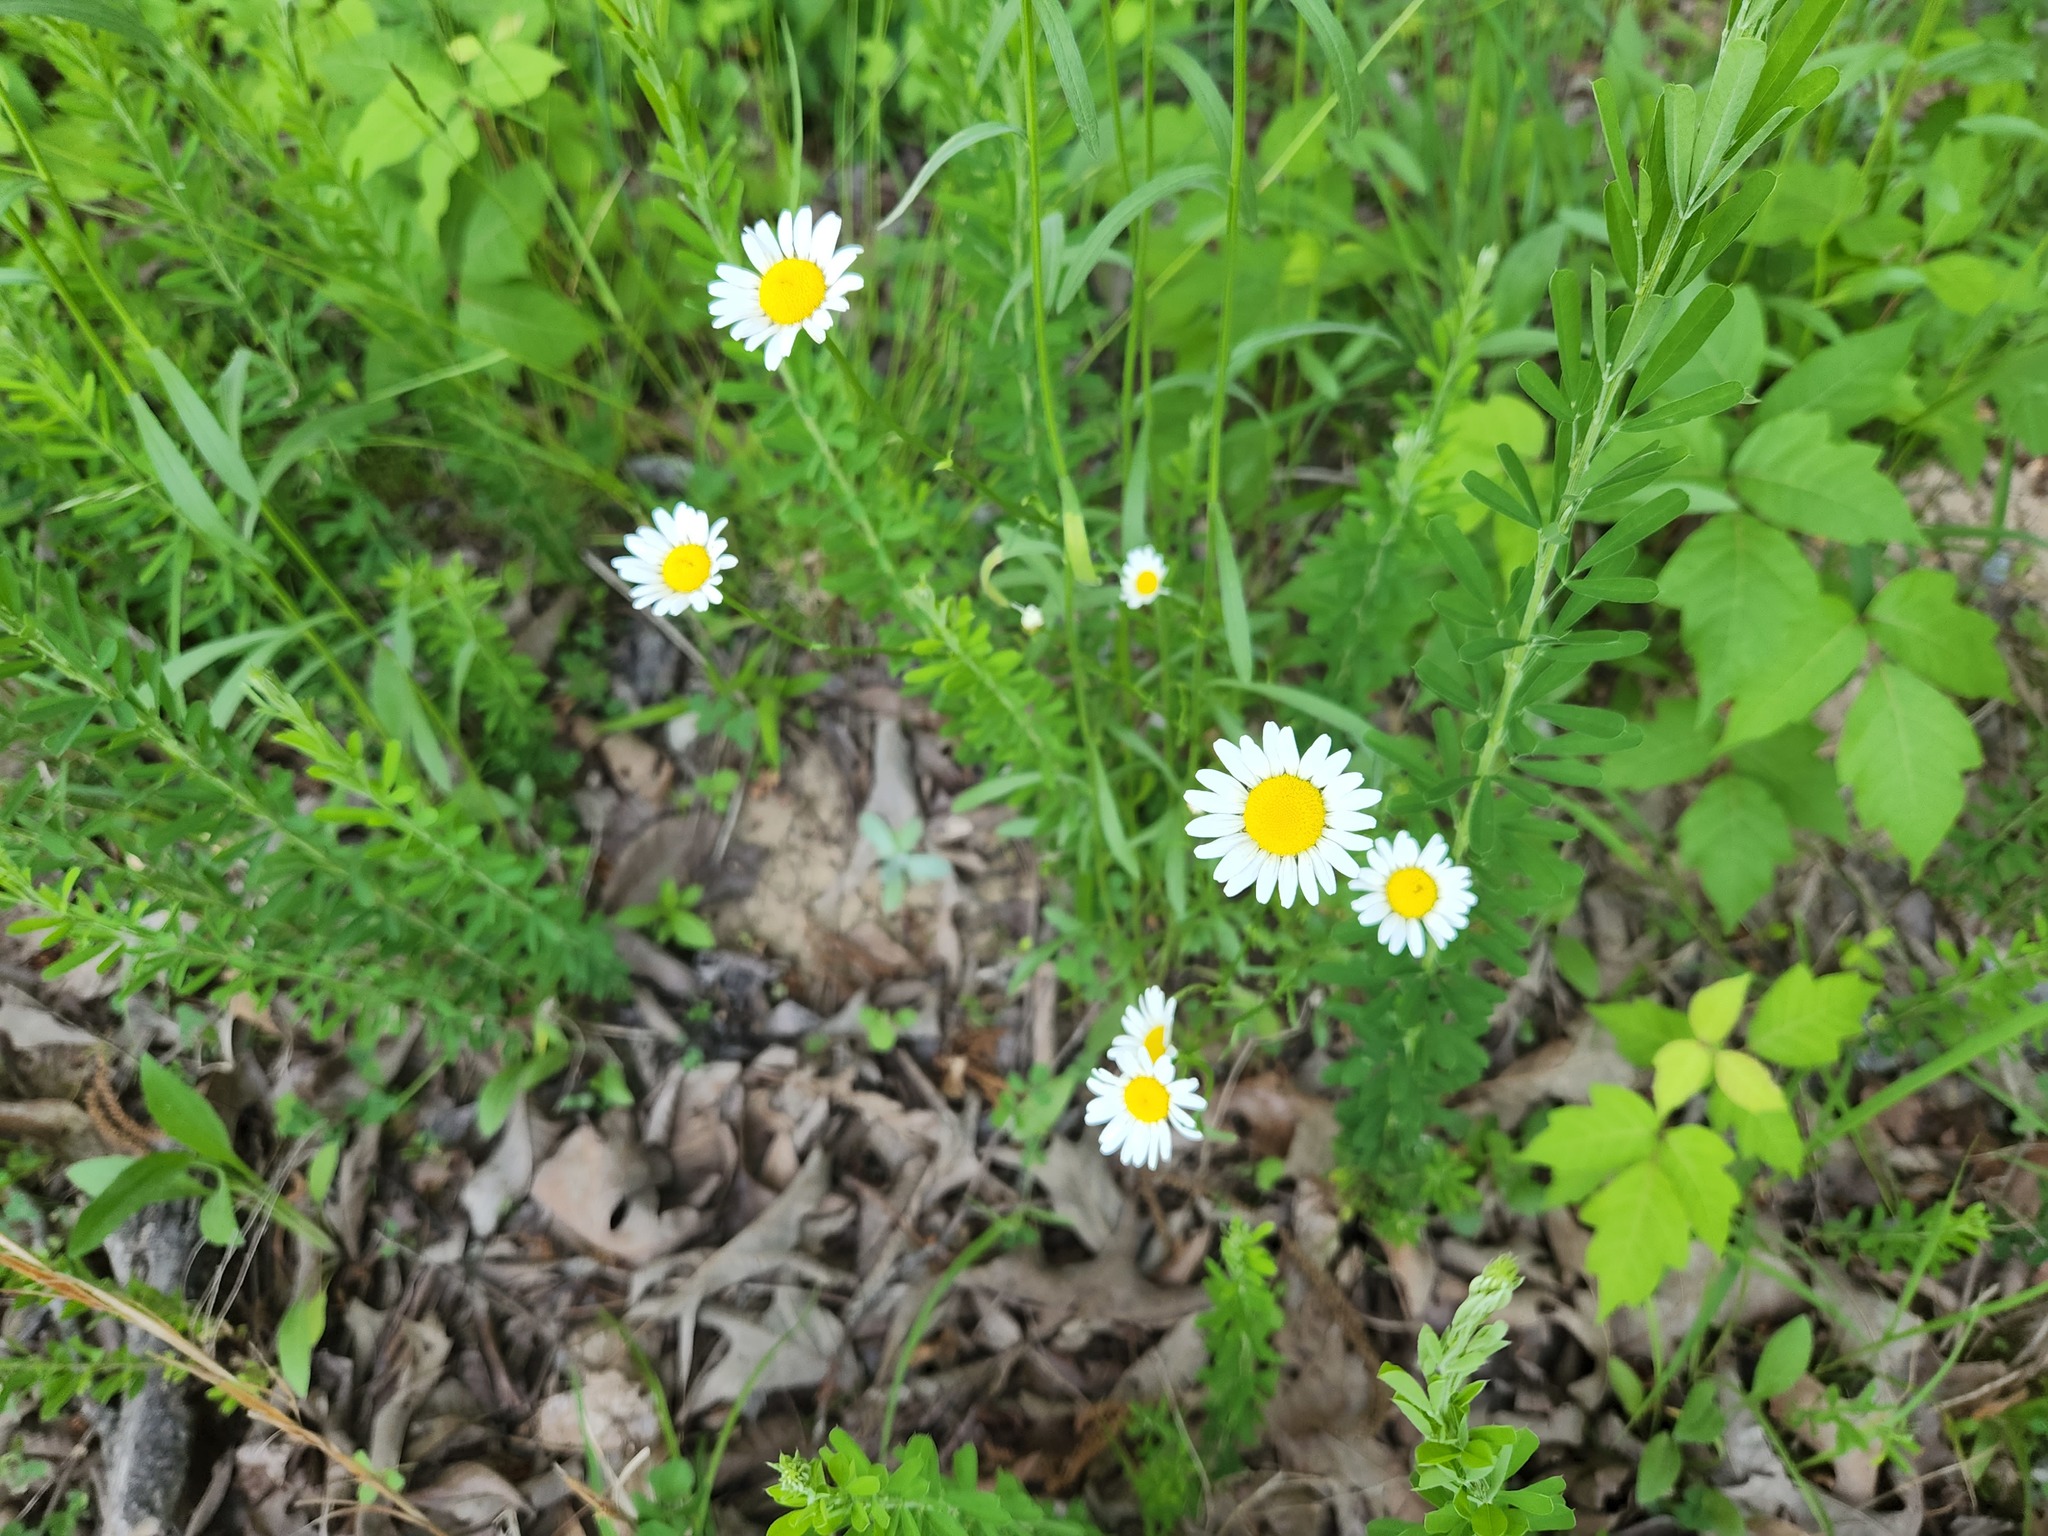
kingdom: Plantae
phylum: Tracheophyta
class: Magnoliopsida
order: Asterales
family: Asteraceae
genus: Leucanthemum
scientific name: Leucanthemum vulgare
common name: Oxeye daisy
